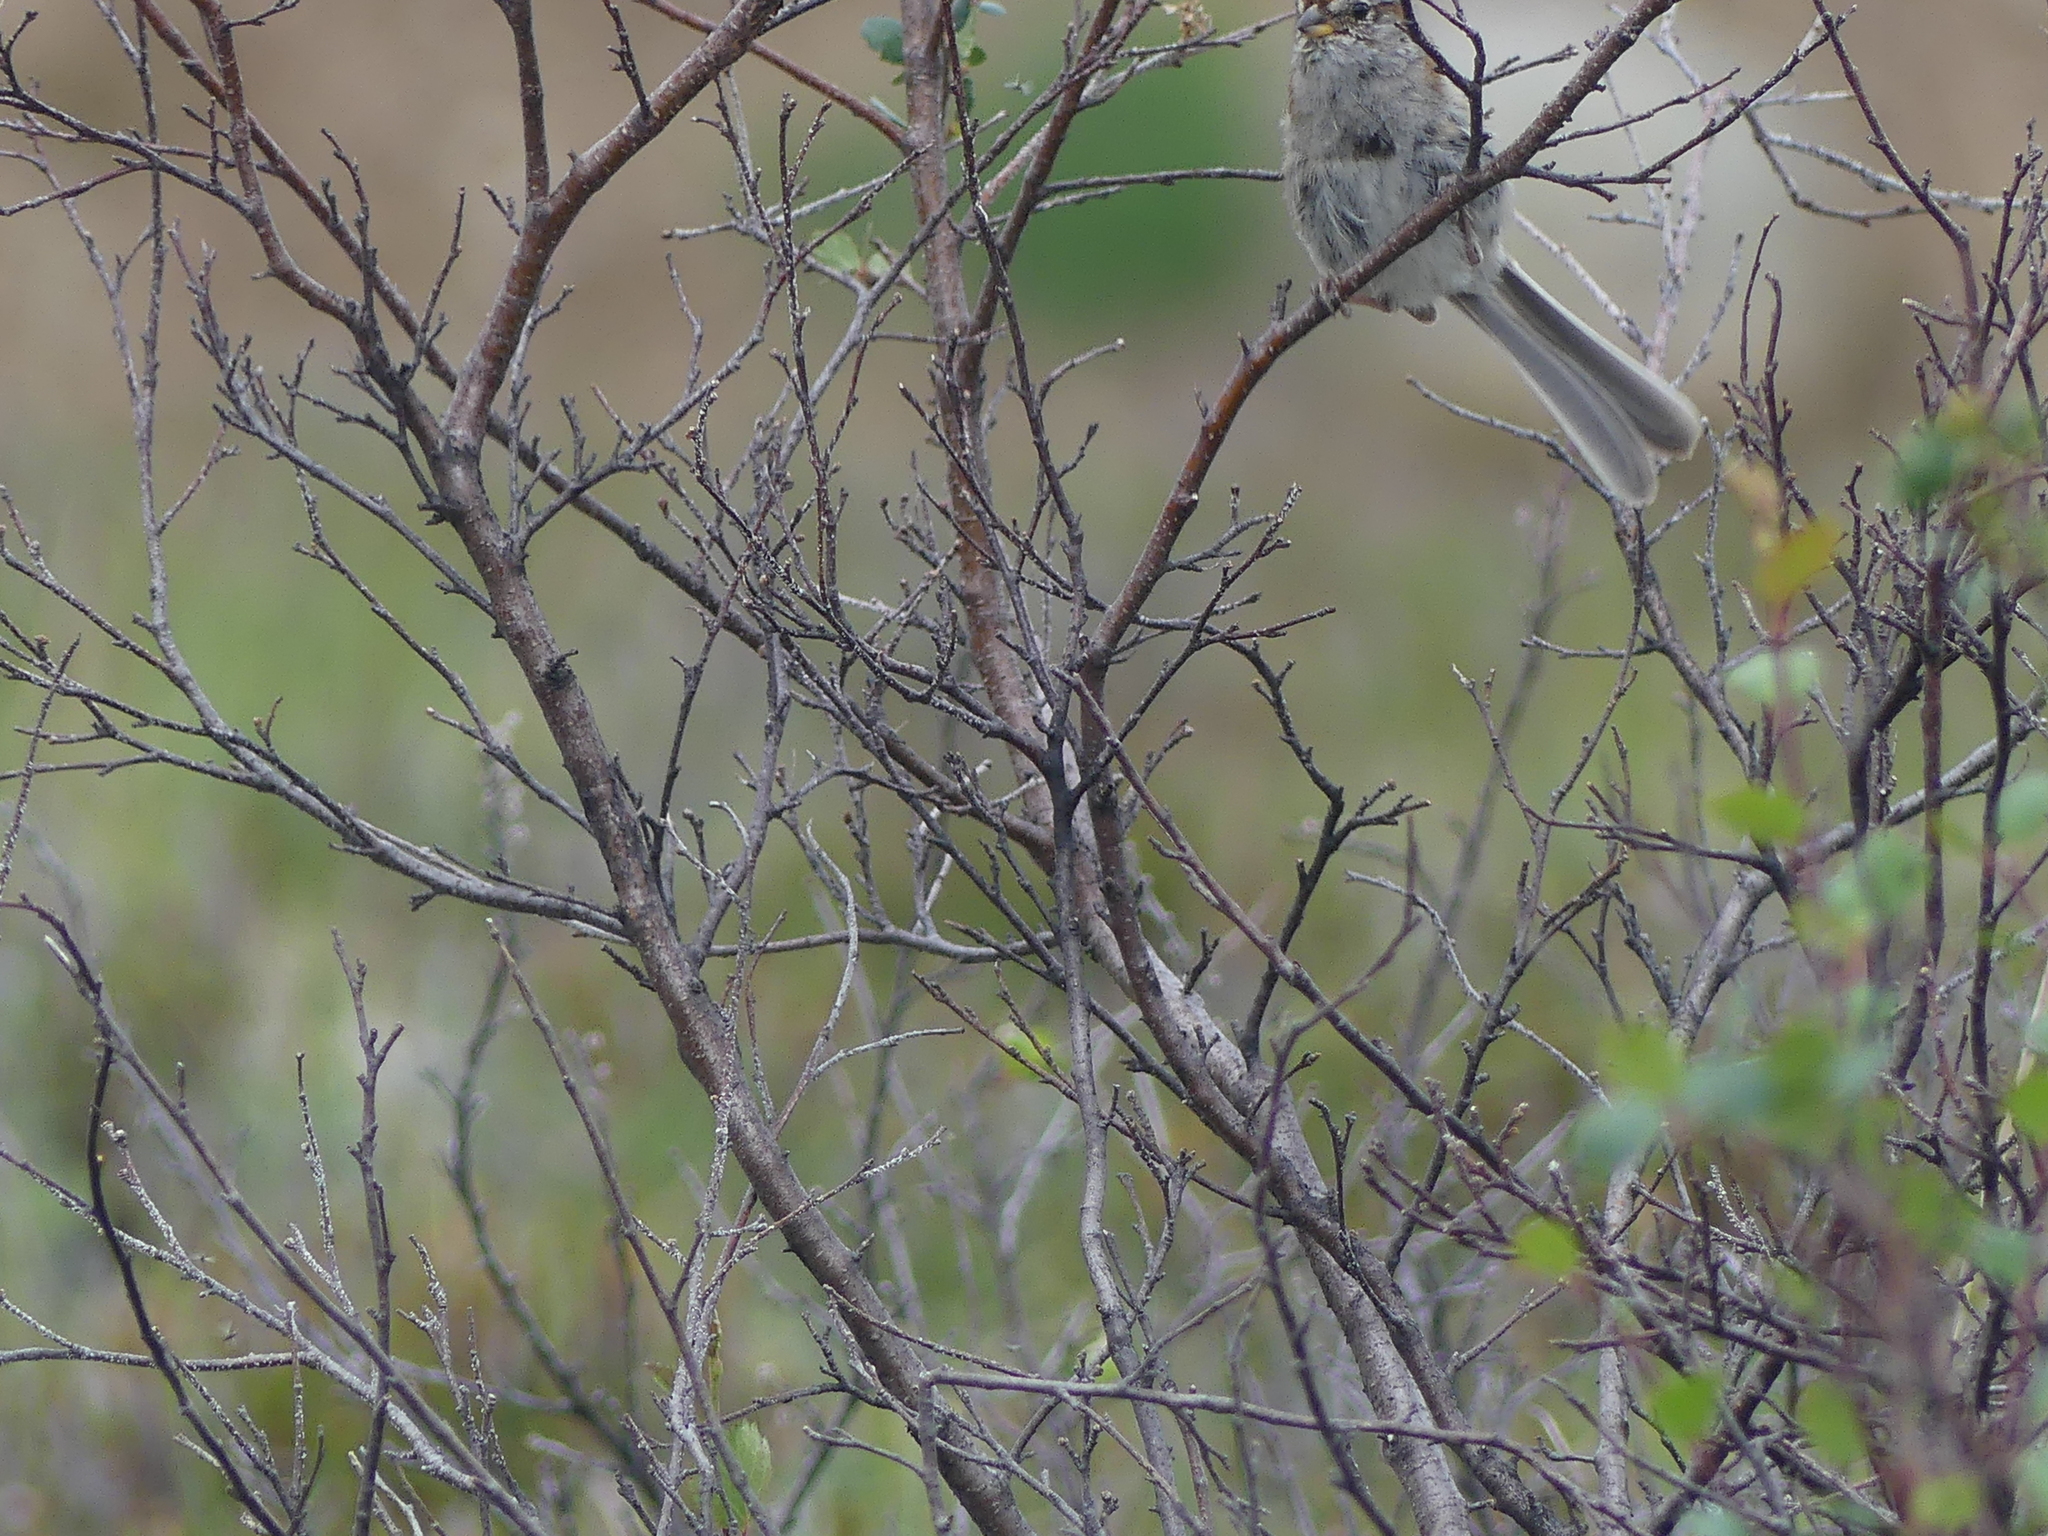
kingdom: Animalia
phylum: Chordata
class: Aves
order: Passeriformes
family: Passerellidae
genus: Spizelloides
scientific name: Spizelloides arborea
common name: American tree sparrow
